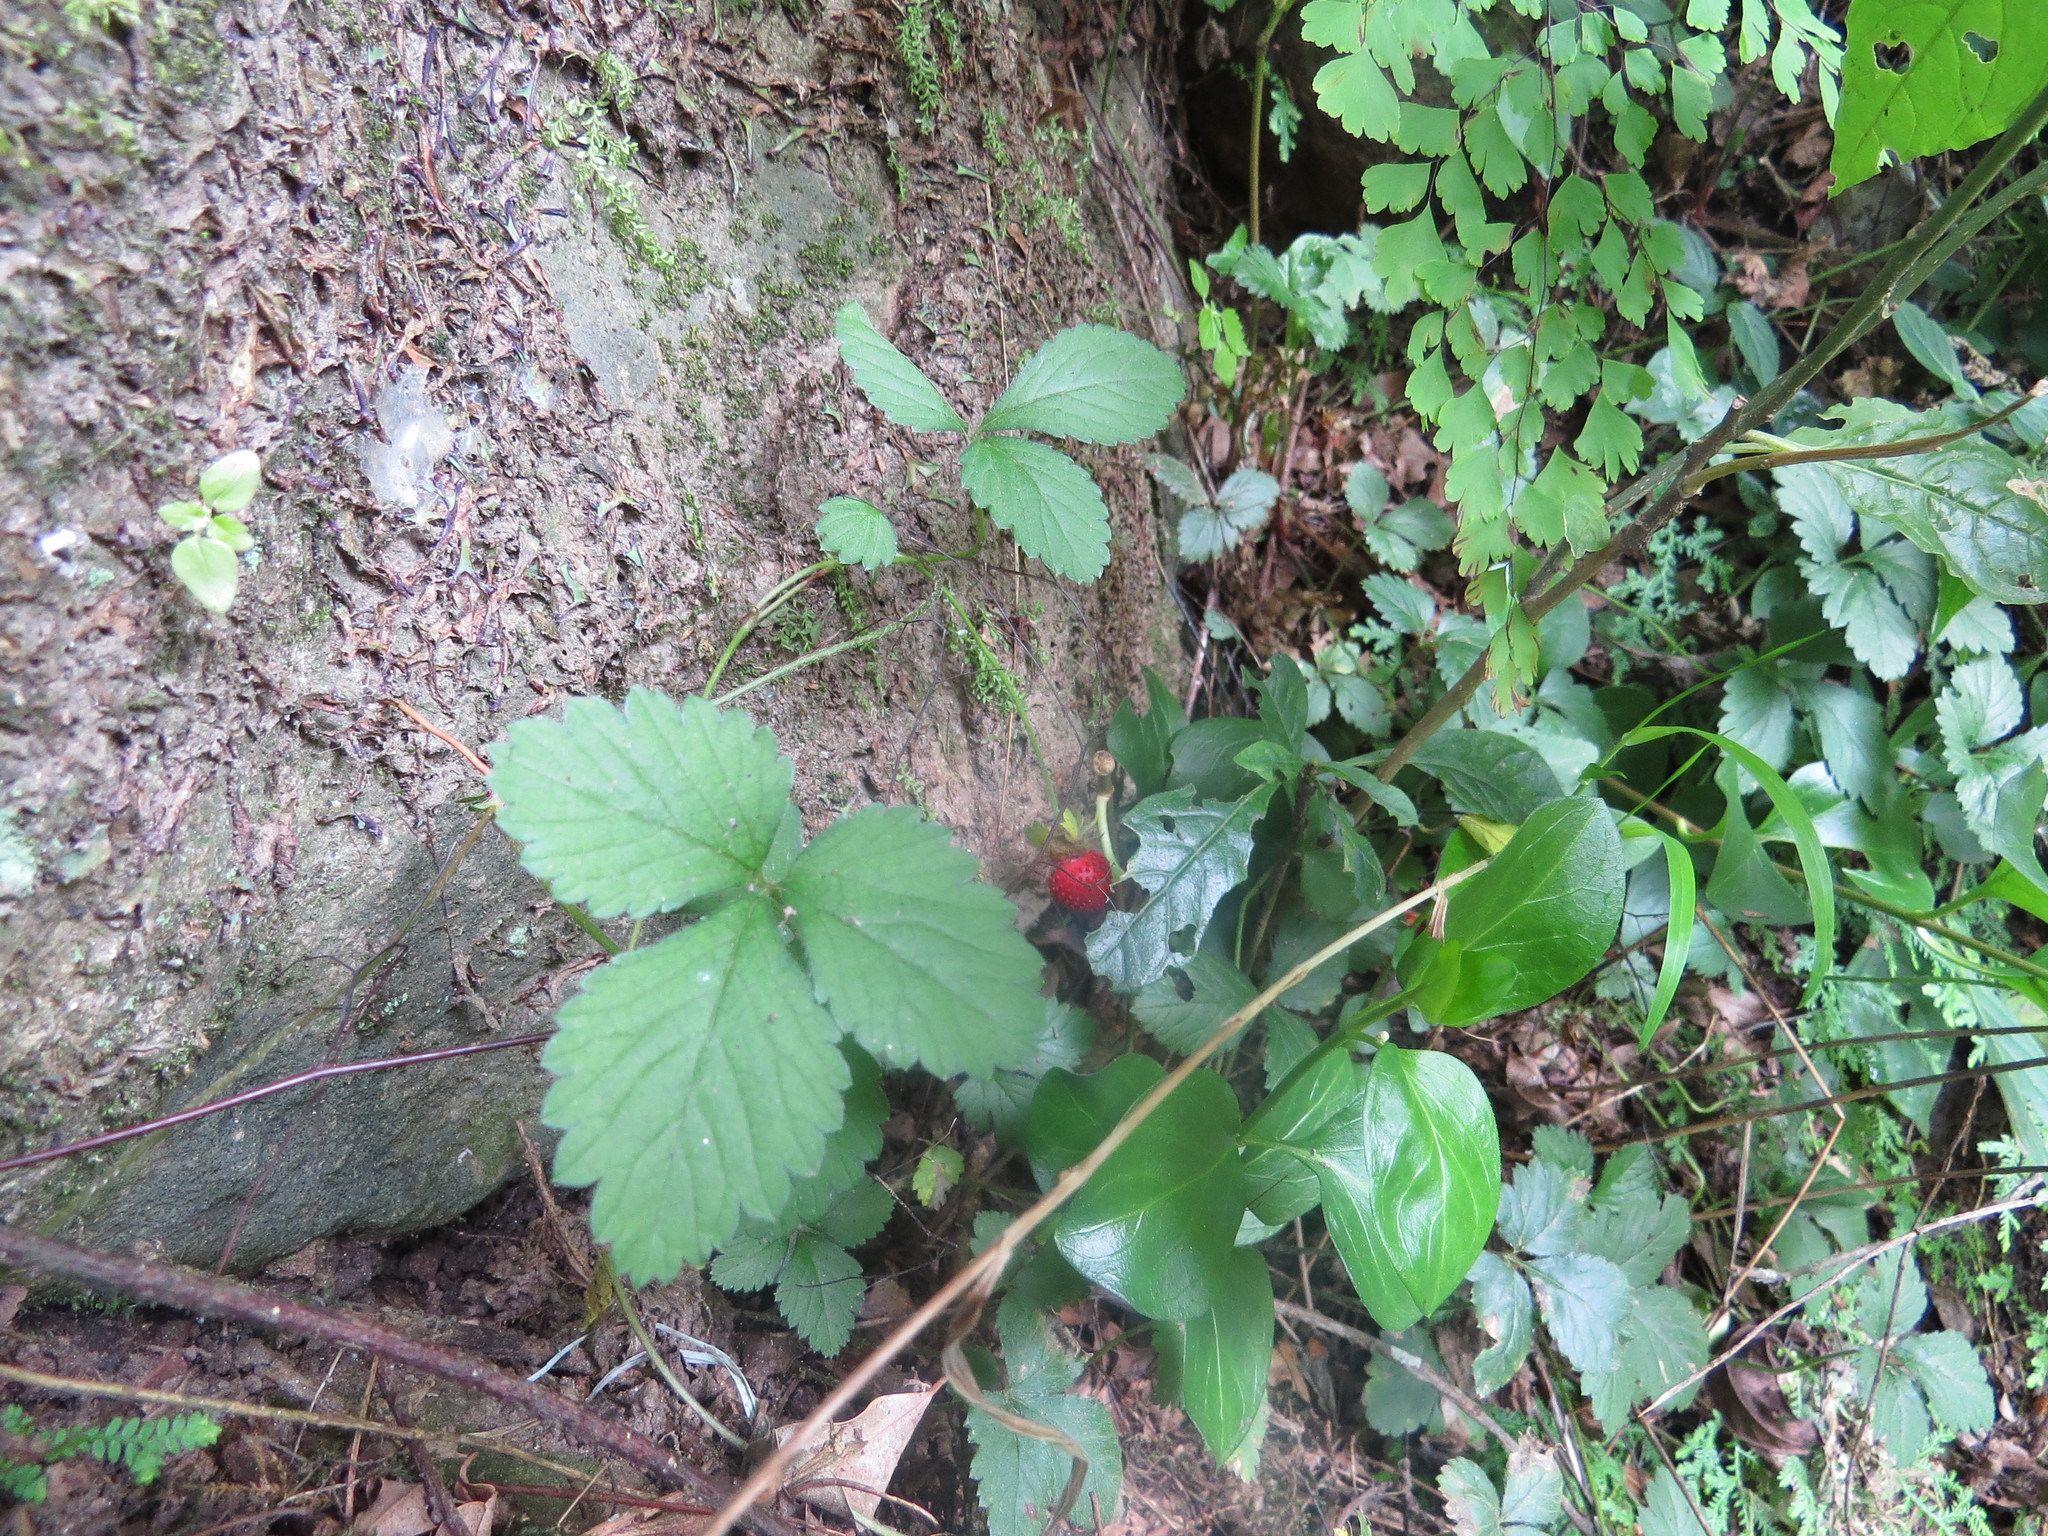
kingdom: Plantae
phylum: Tracheophyta
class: Magnoliopsida
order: Rosales
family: Rosaceae
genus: Potentilla
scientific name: Potentilla indica
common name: Yellow-flowered strawberry
